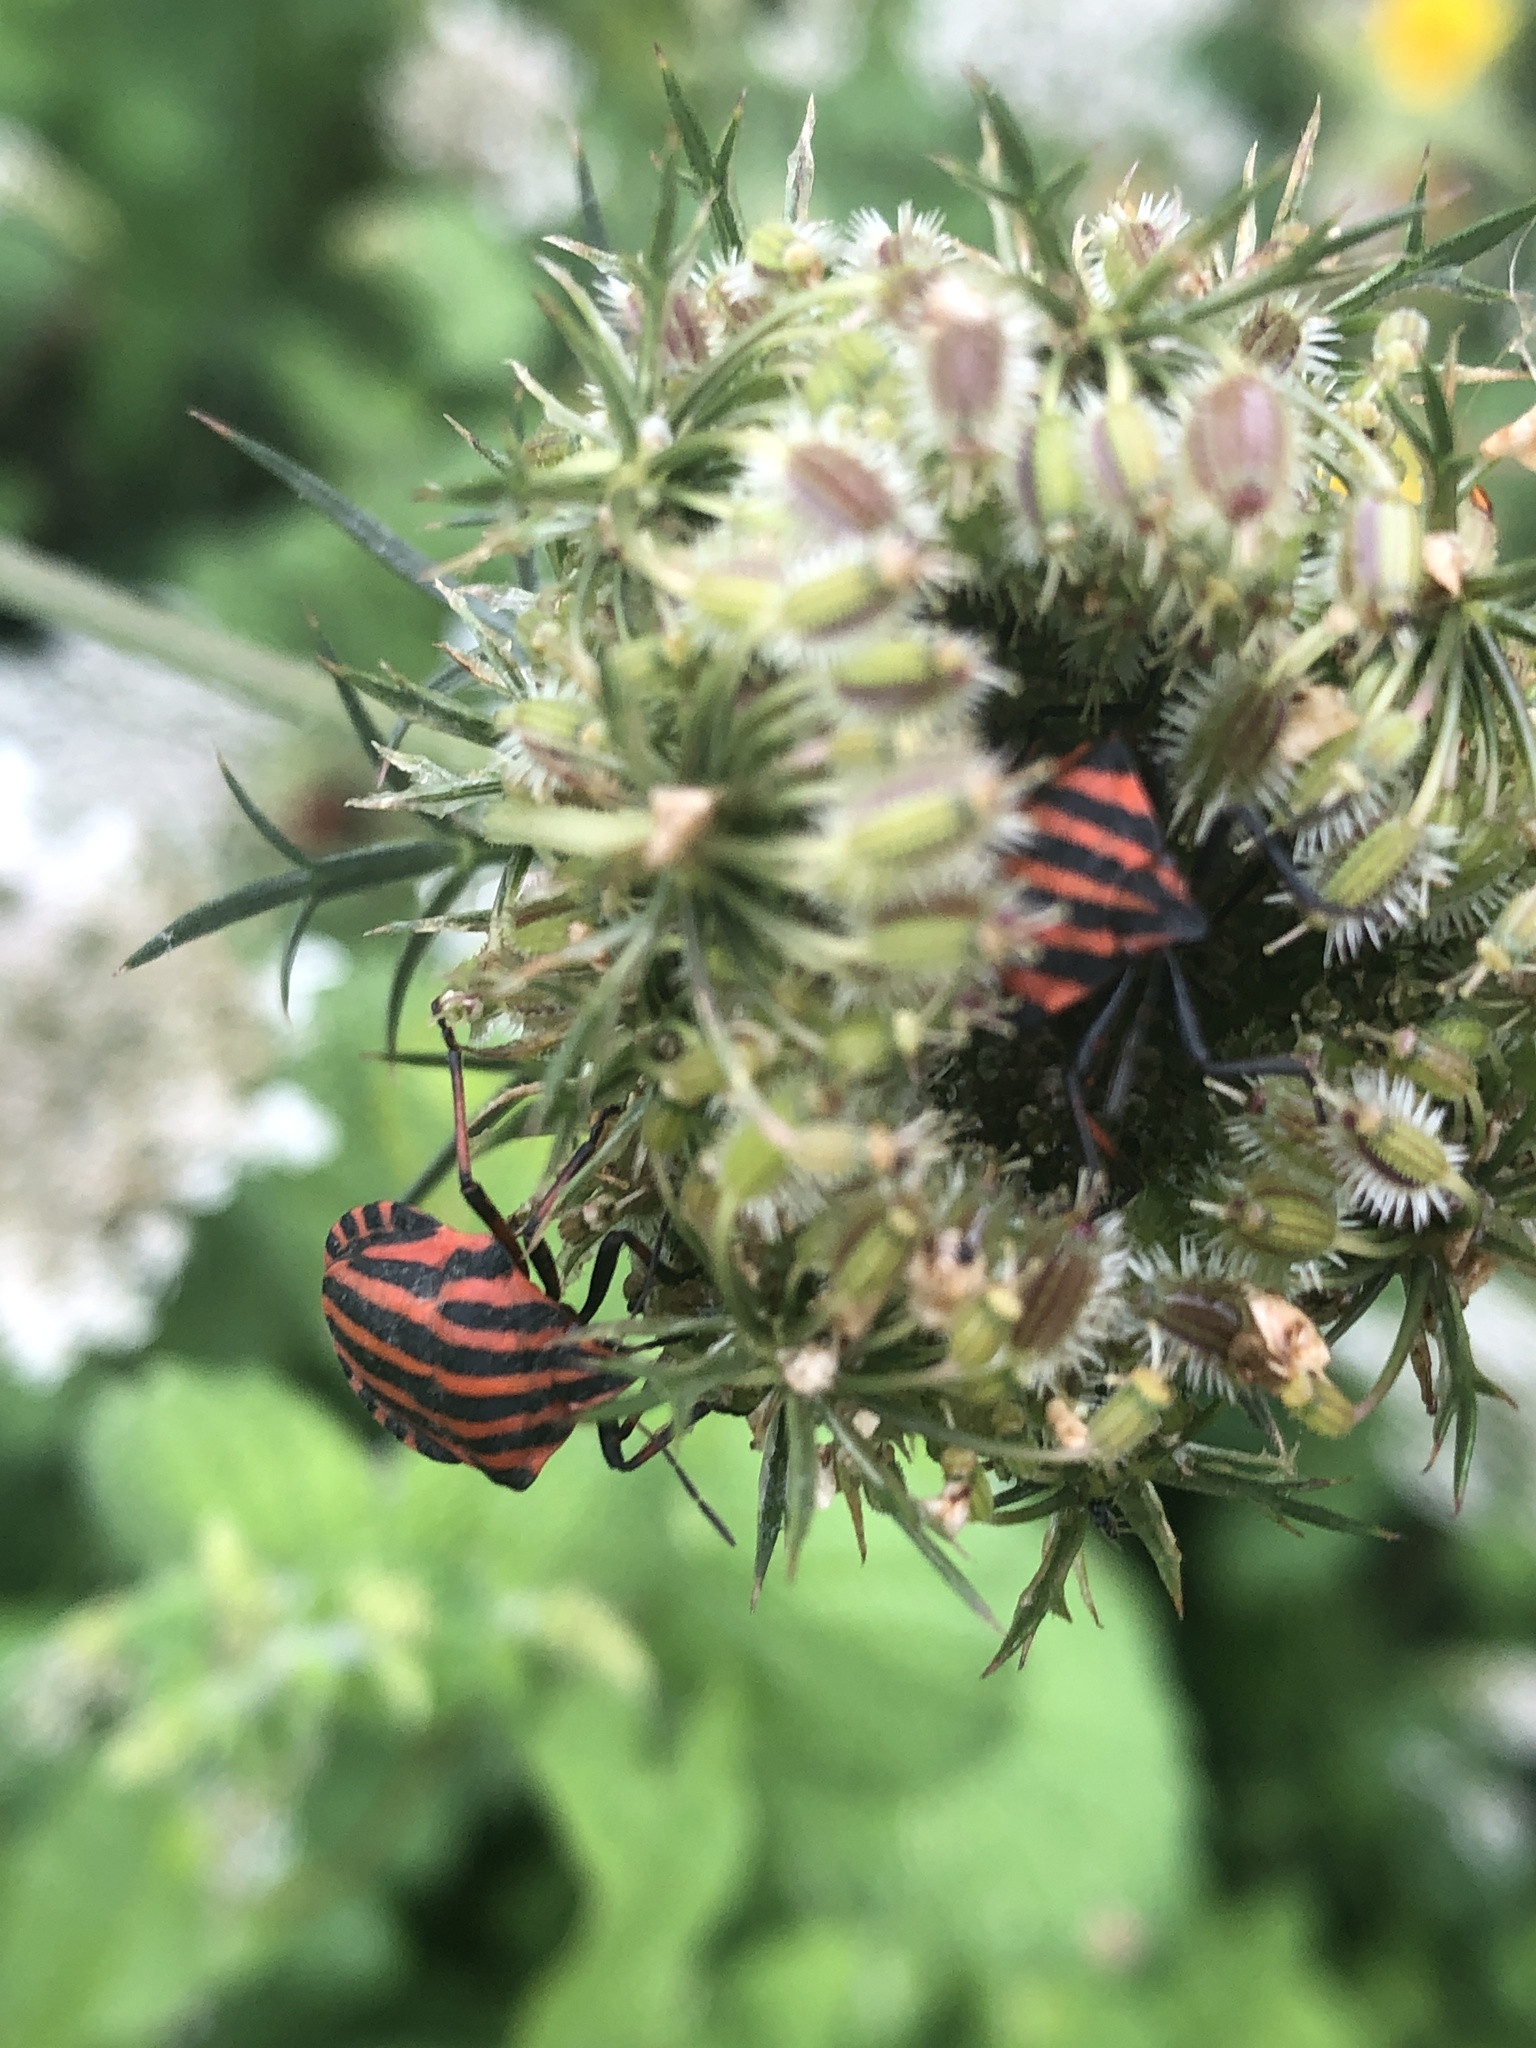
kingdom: Animalia
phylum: Arthropoda
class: Insecta
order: Hemiptera
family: Pentatomidae
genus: Graphosoma
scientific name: Graphosoma italicum
